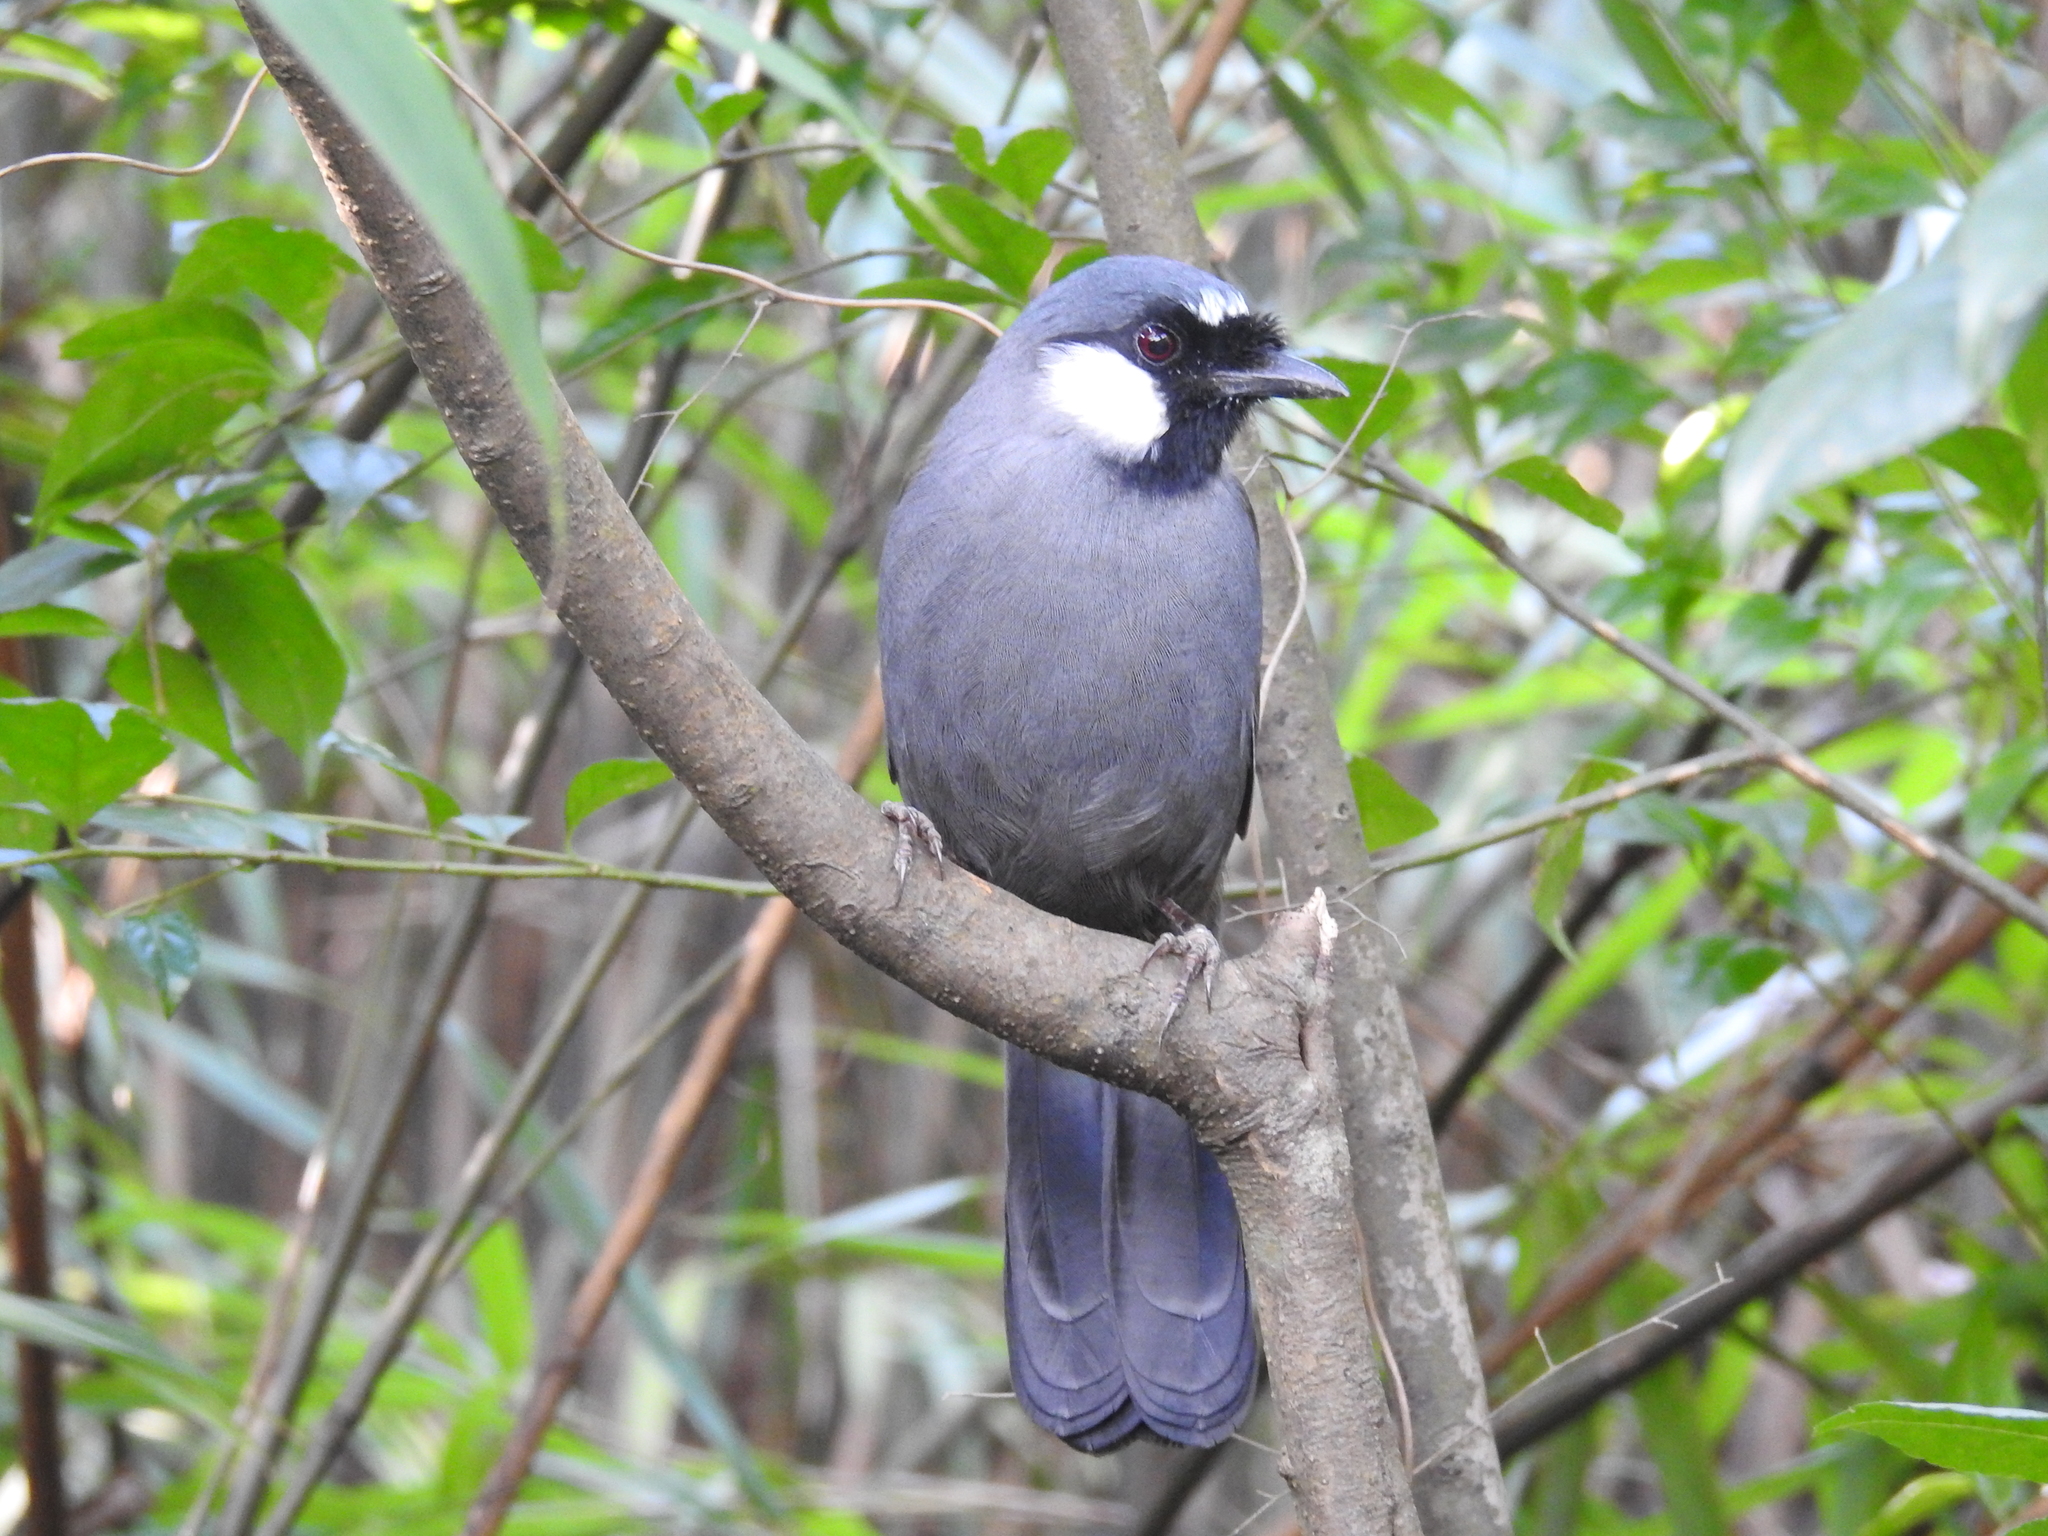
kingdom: Animalia
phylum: Chordata
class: Aves
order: Passeriformes
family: Leiothrichidae
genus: Garrulax
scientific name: Garrulax chinensis
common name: Black-throated laughingthrush
